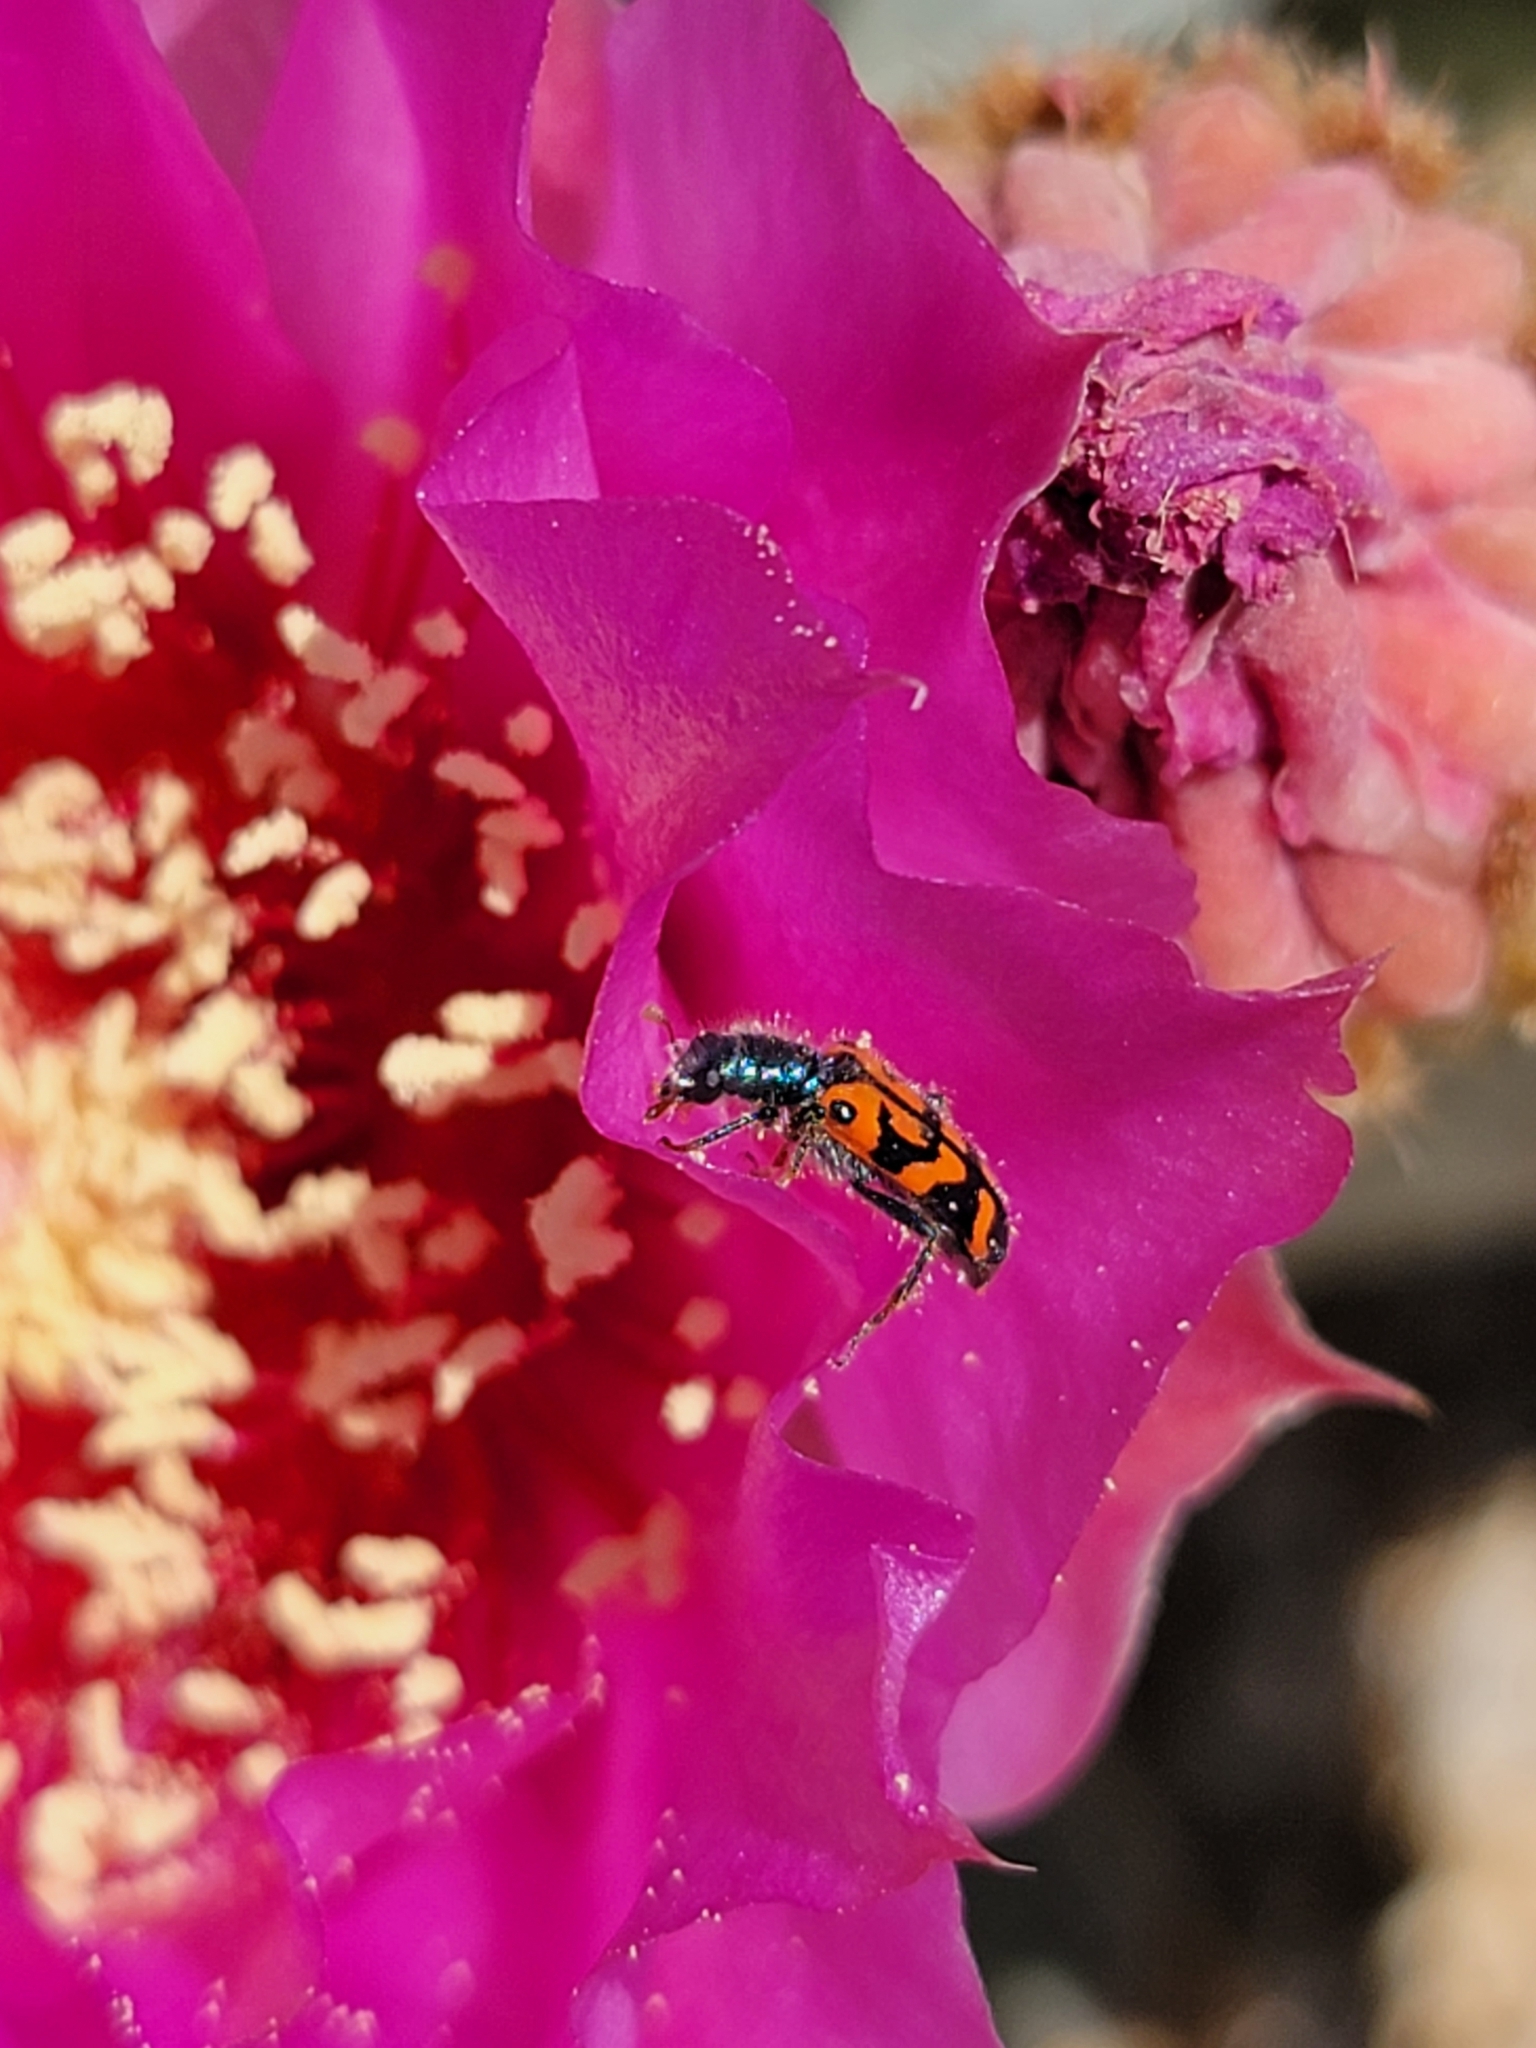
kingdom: Animalia
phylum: Arthropoda
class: Insecta
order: Coleoptera
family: Cleridae
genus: Trichodes
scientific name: Trichodes ornatus
